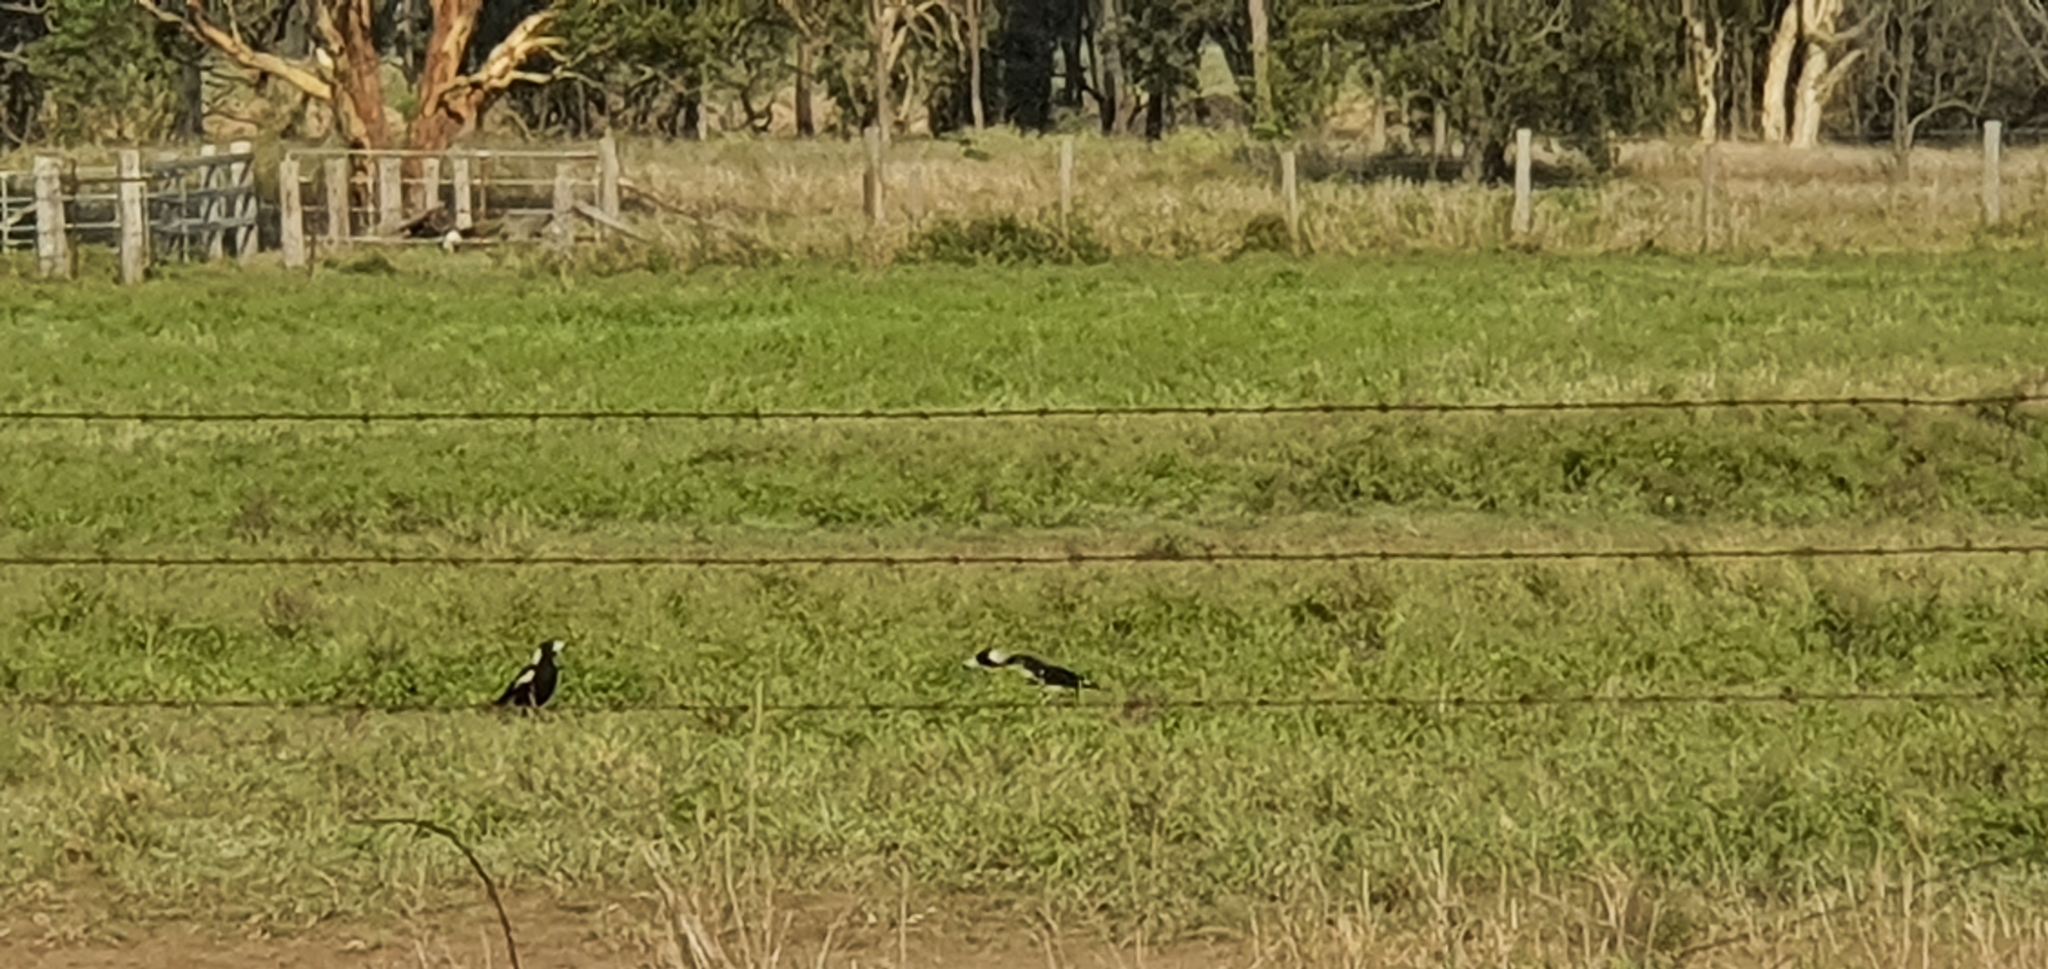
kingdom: Animalia
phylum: Chordata
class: Aves
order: Passeriformes
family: Cracticidae
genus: Gymnorhina
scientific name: Gymnorhina tibicen
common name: Australian magpie
